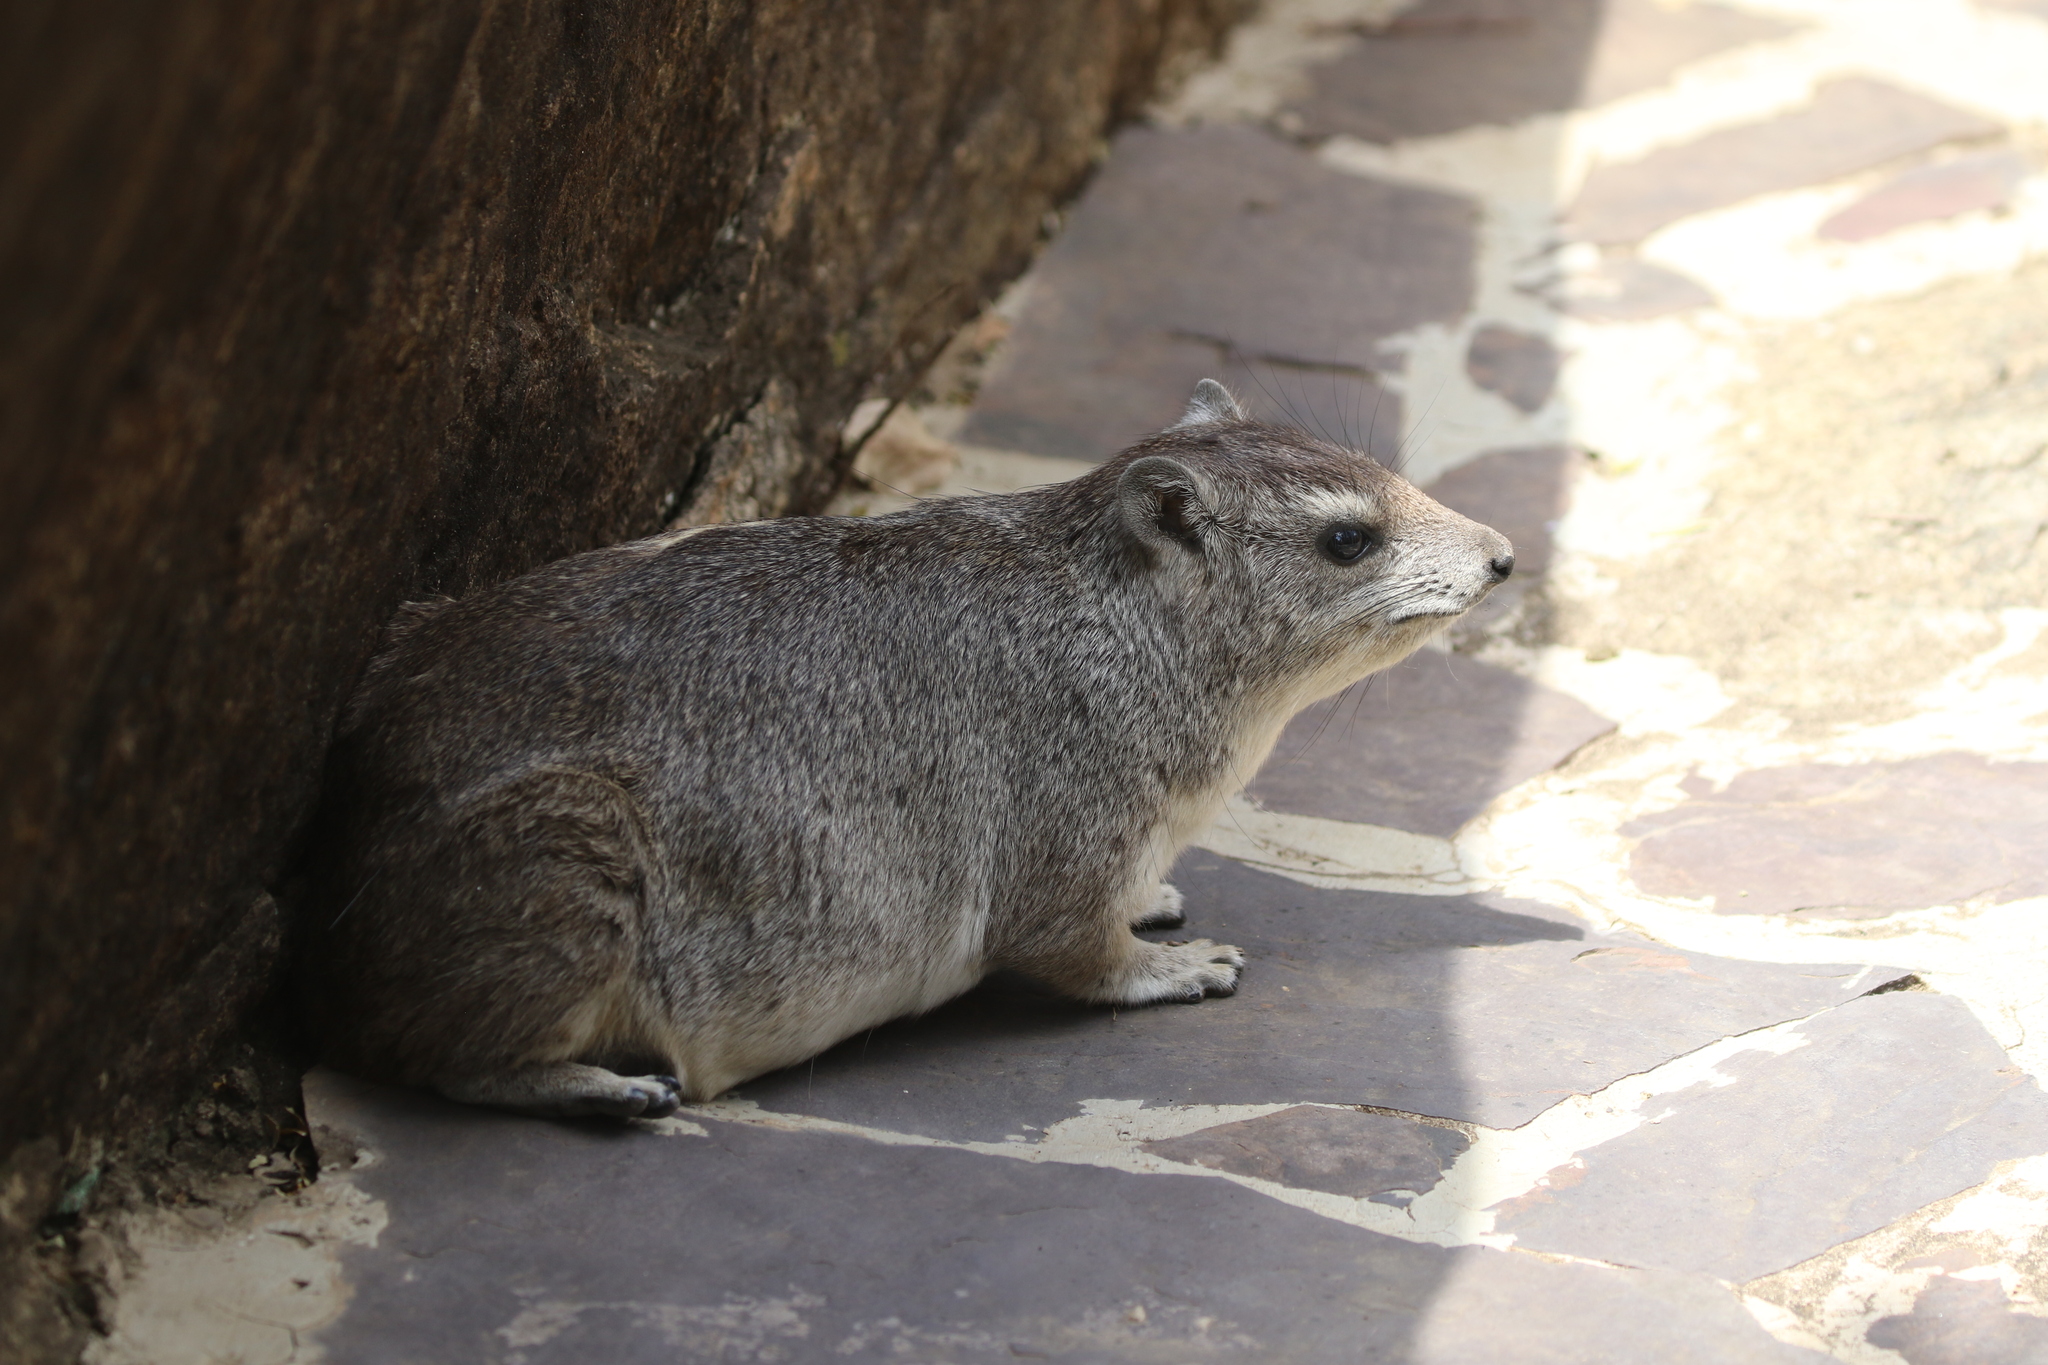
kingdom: Animalia
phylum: Chordata
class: Mammalia
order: Hyracoidea
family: Procaviidae
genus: Heterohyrax
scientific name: Heterohyrax brucei
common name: Bush hyrax
